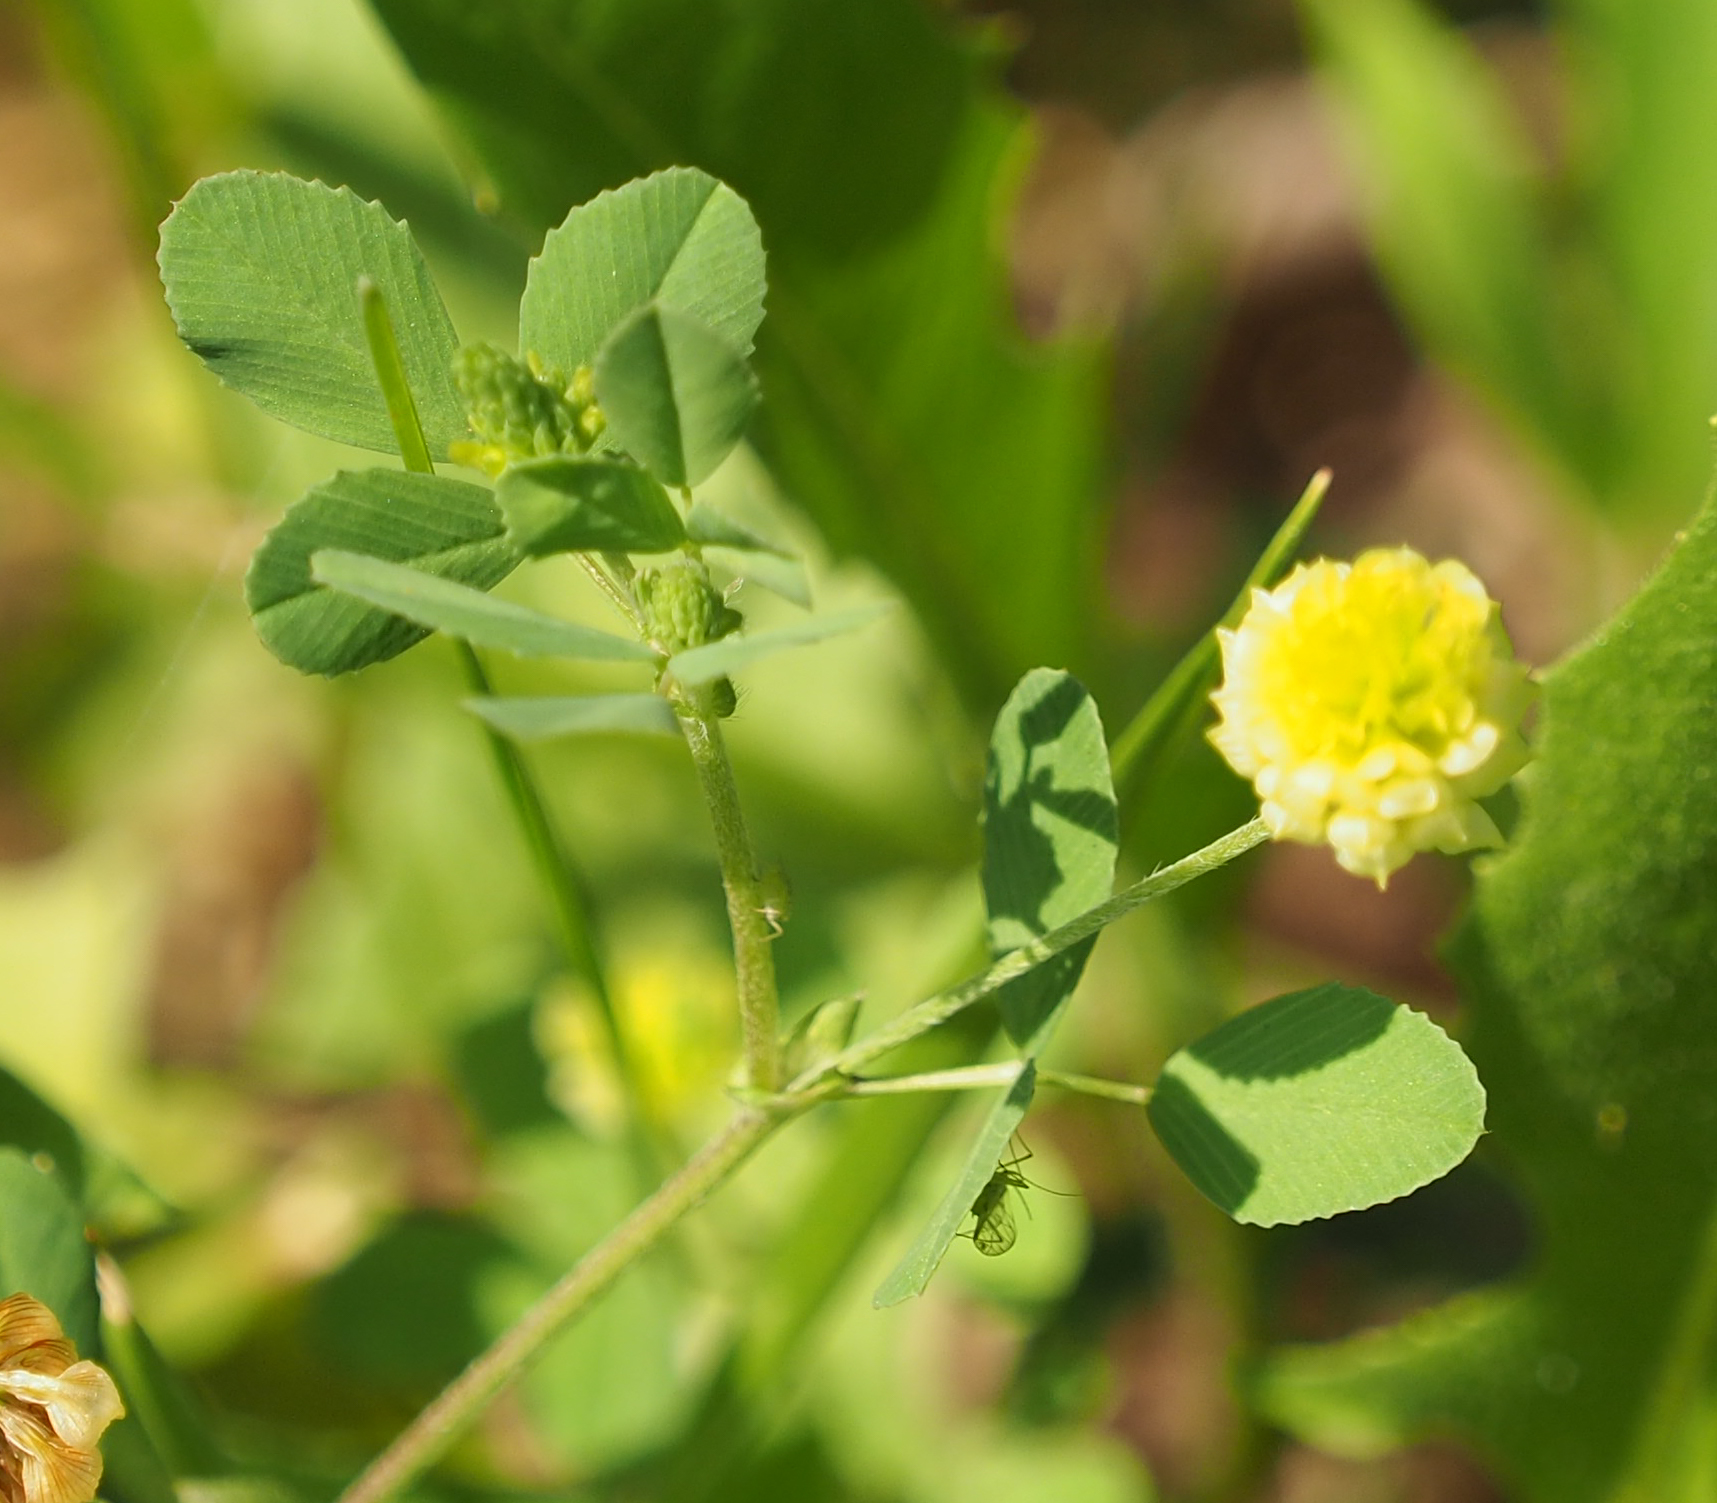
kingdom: Plantae
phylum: Tracheophyta
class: Magnoliopsida
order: Fabales
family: Fabaceae
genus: Trifolium
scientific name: Trifolium campestre
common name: Field clover
